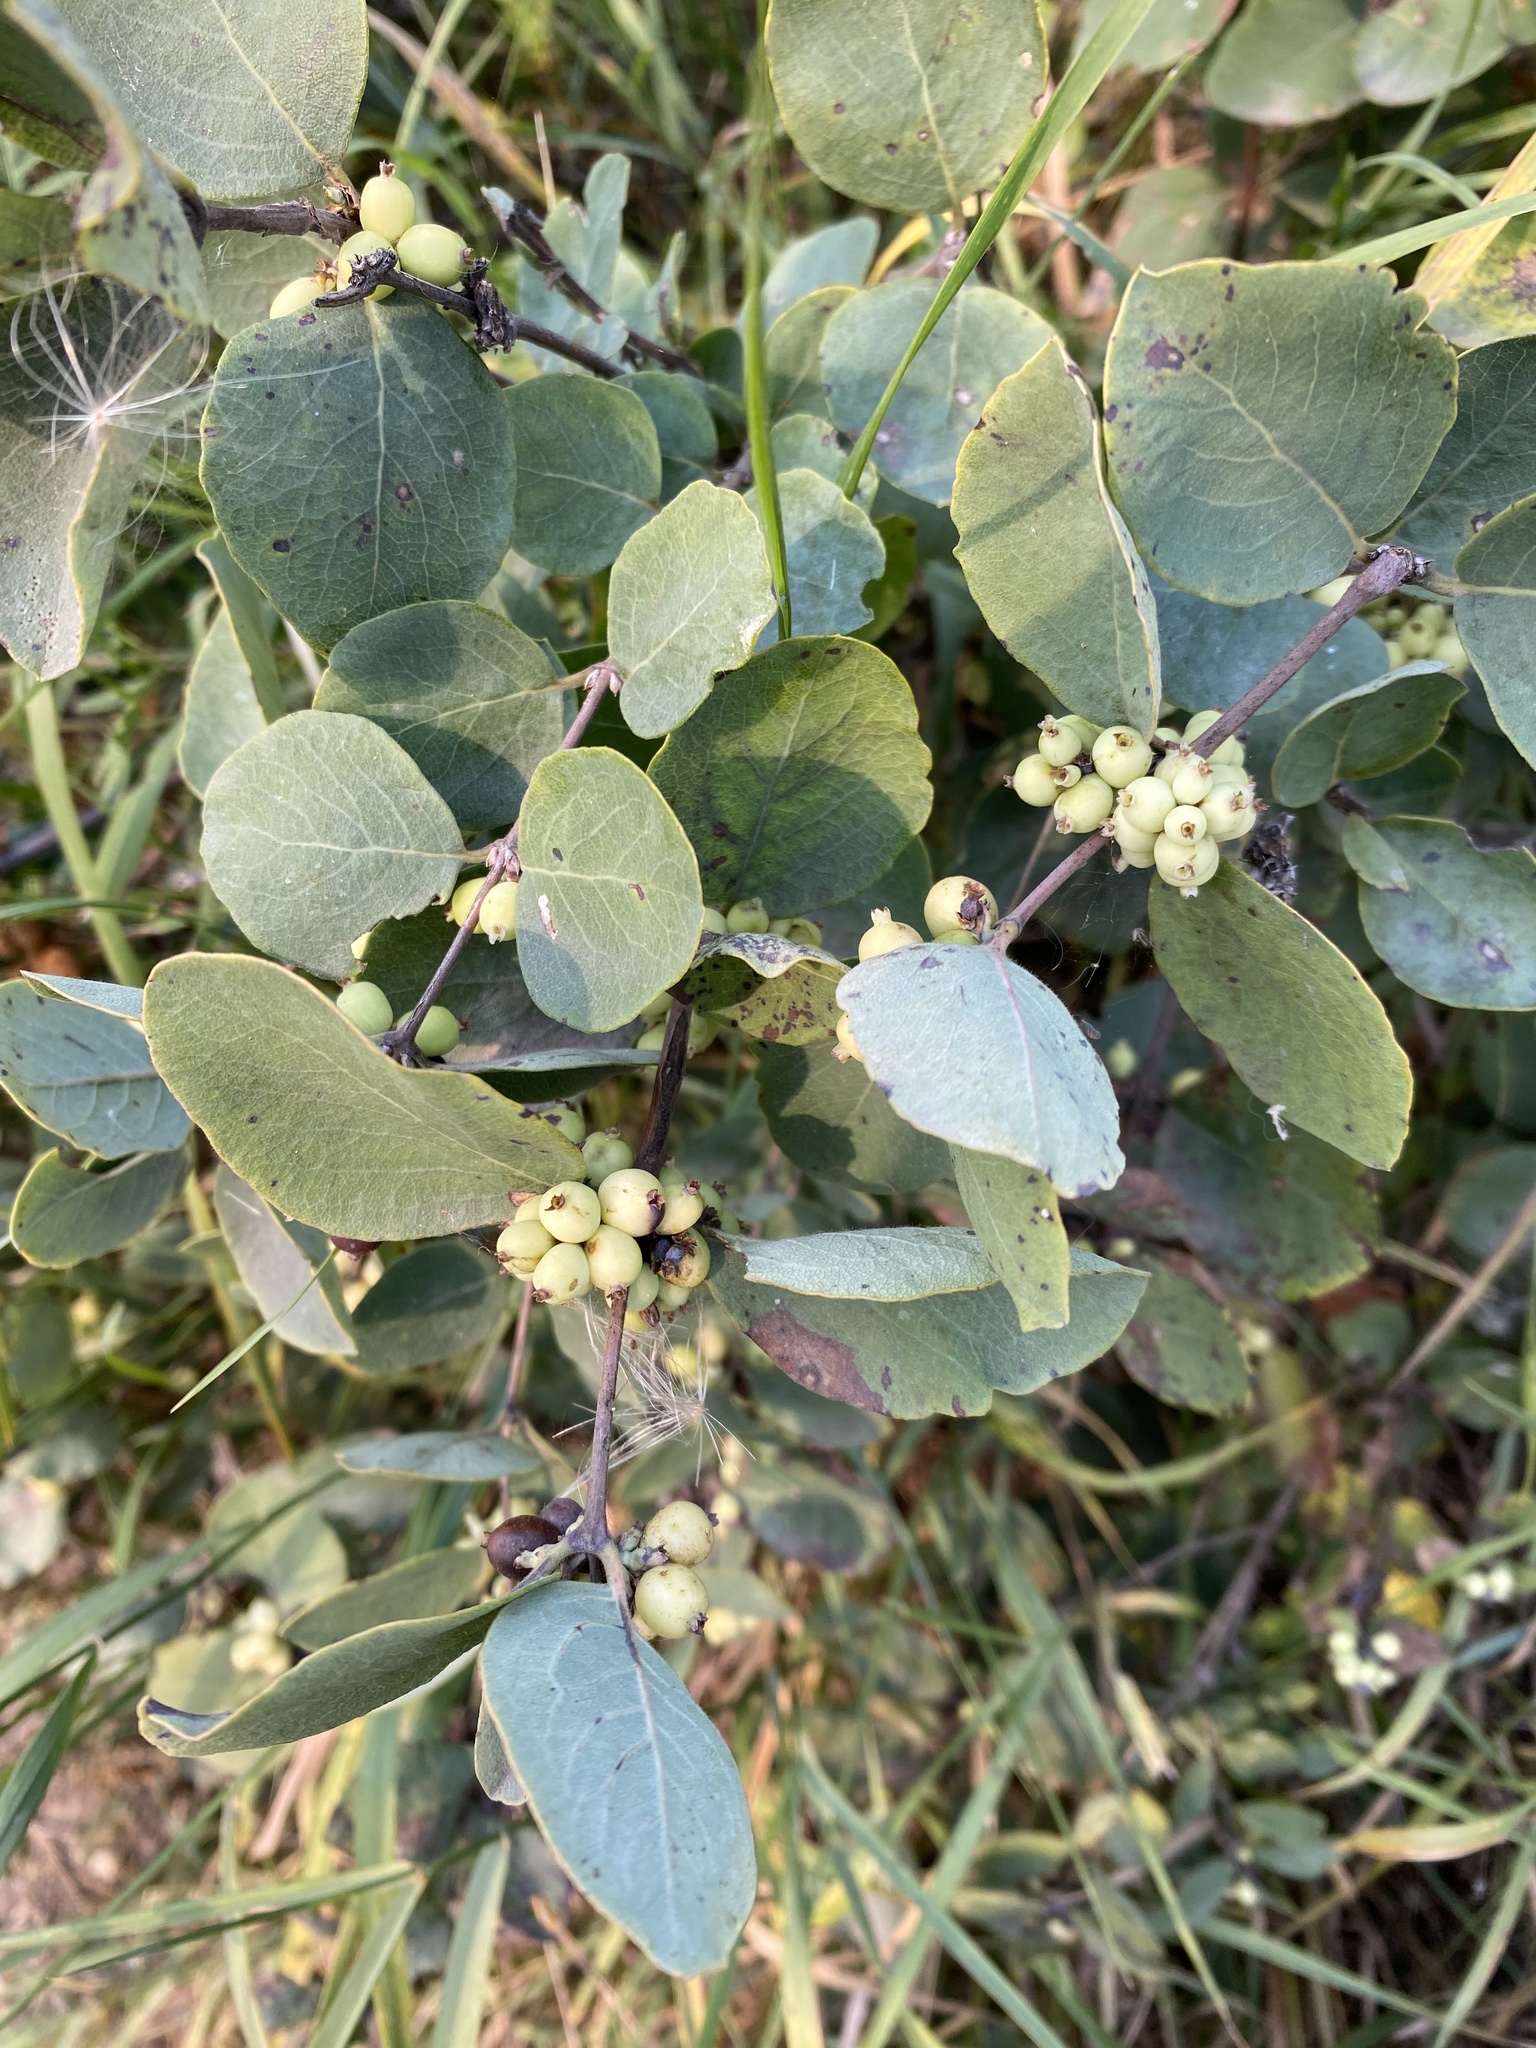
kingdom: Plantae
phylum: Tracheophyta
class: Magnoliopsida
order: Dipsacales
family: Caprifoliaceae
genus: Symphoricarpos
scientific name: Symphoricarpos occidentalis
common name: Wolfberry
